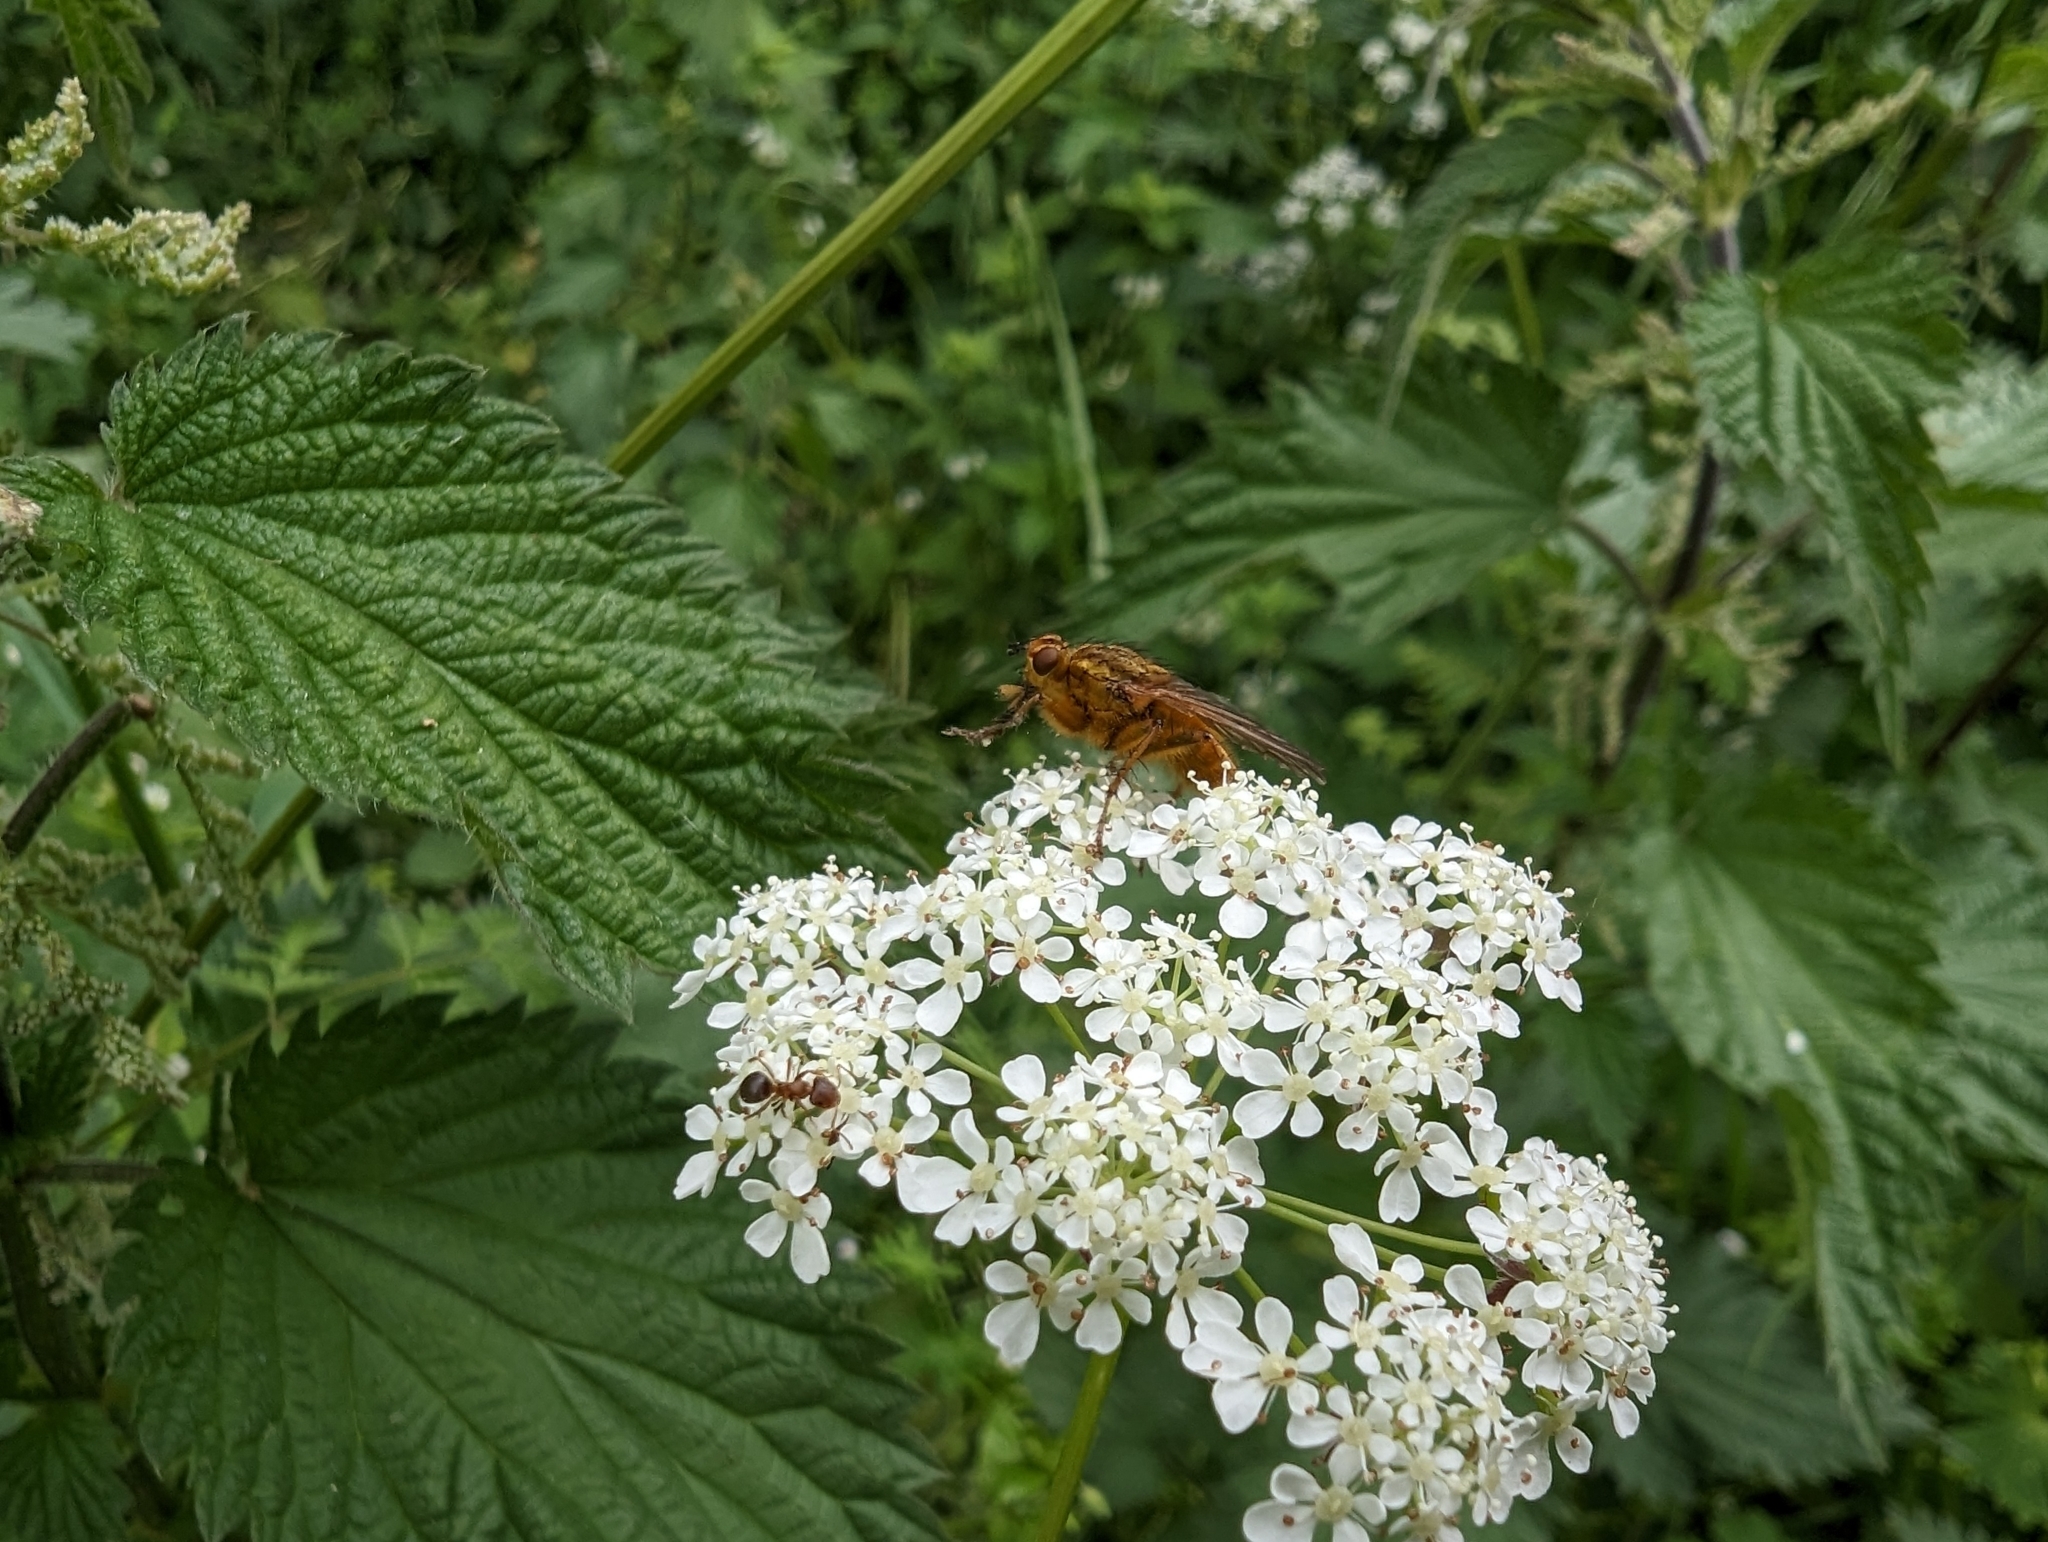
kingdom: Animalia
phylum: Arthropoda
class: Insecta
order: Diptera
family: Scathophagidae
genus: Scathophaga
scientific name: Scathophaga stercoraria
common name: Yellow dung fly
